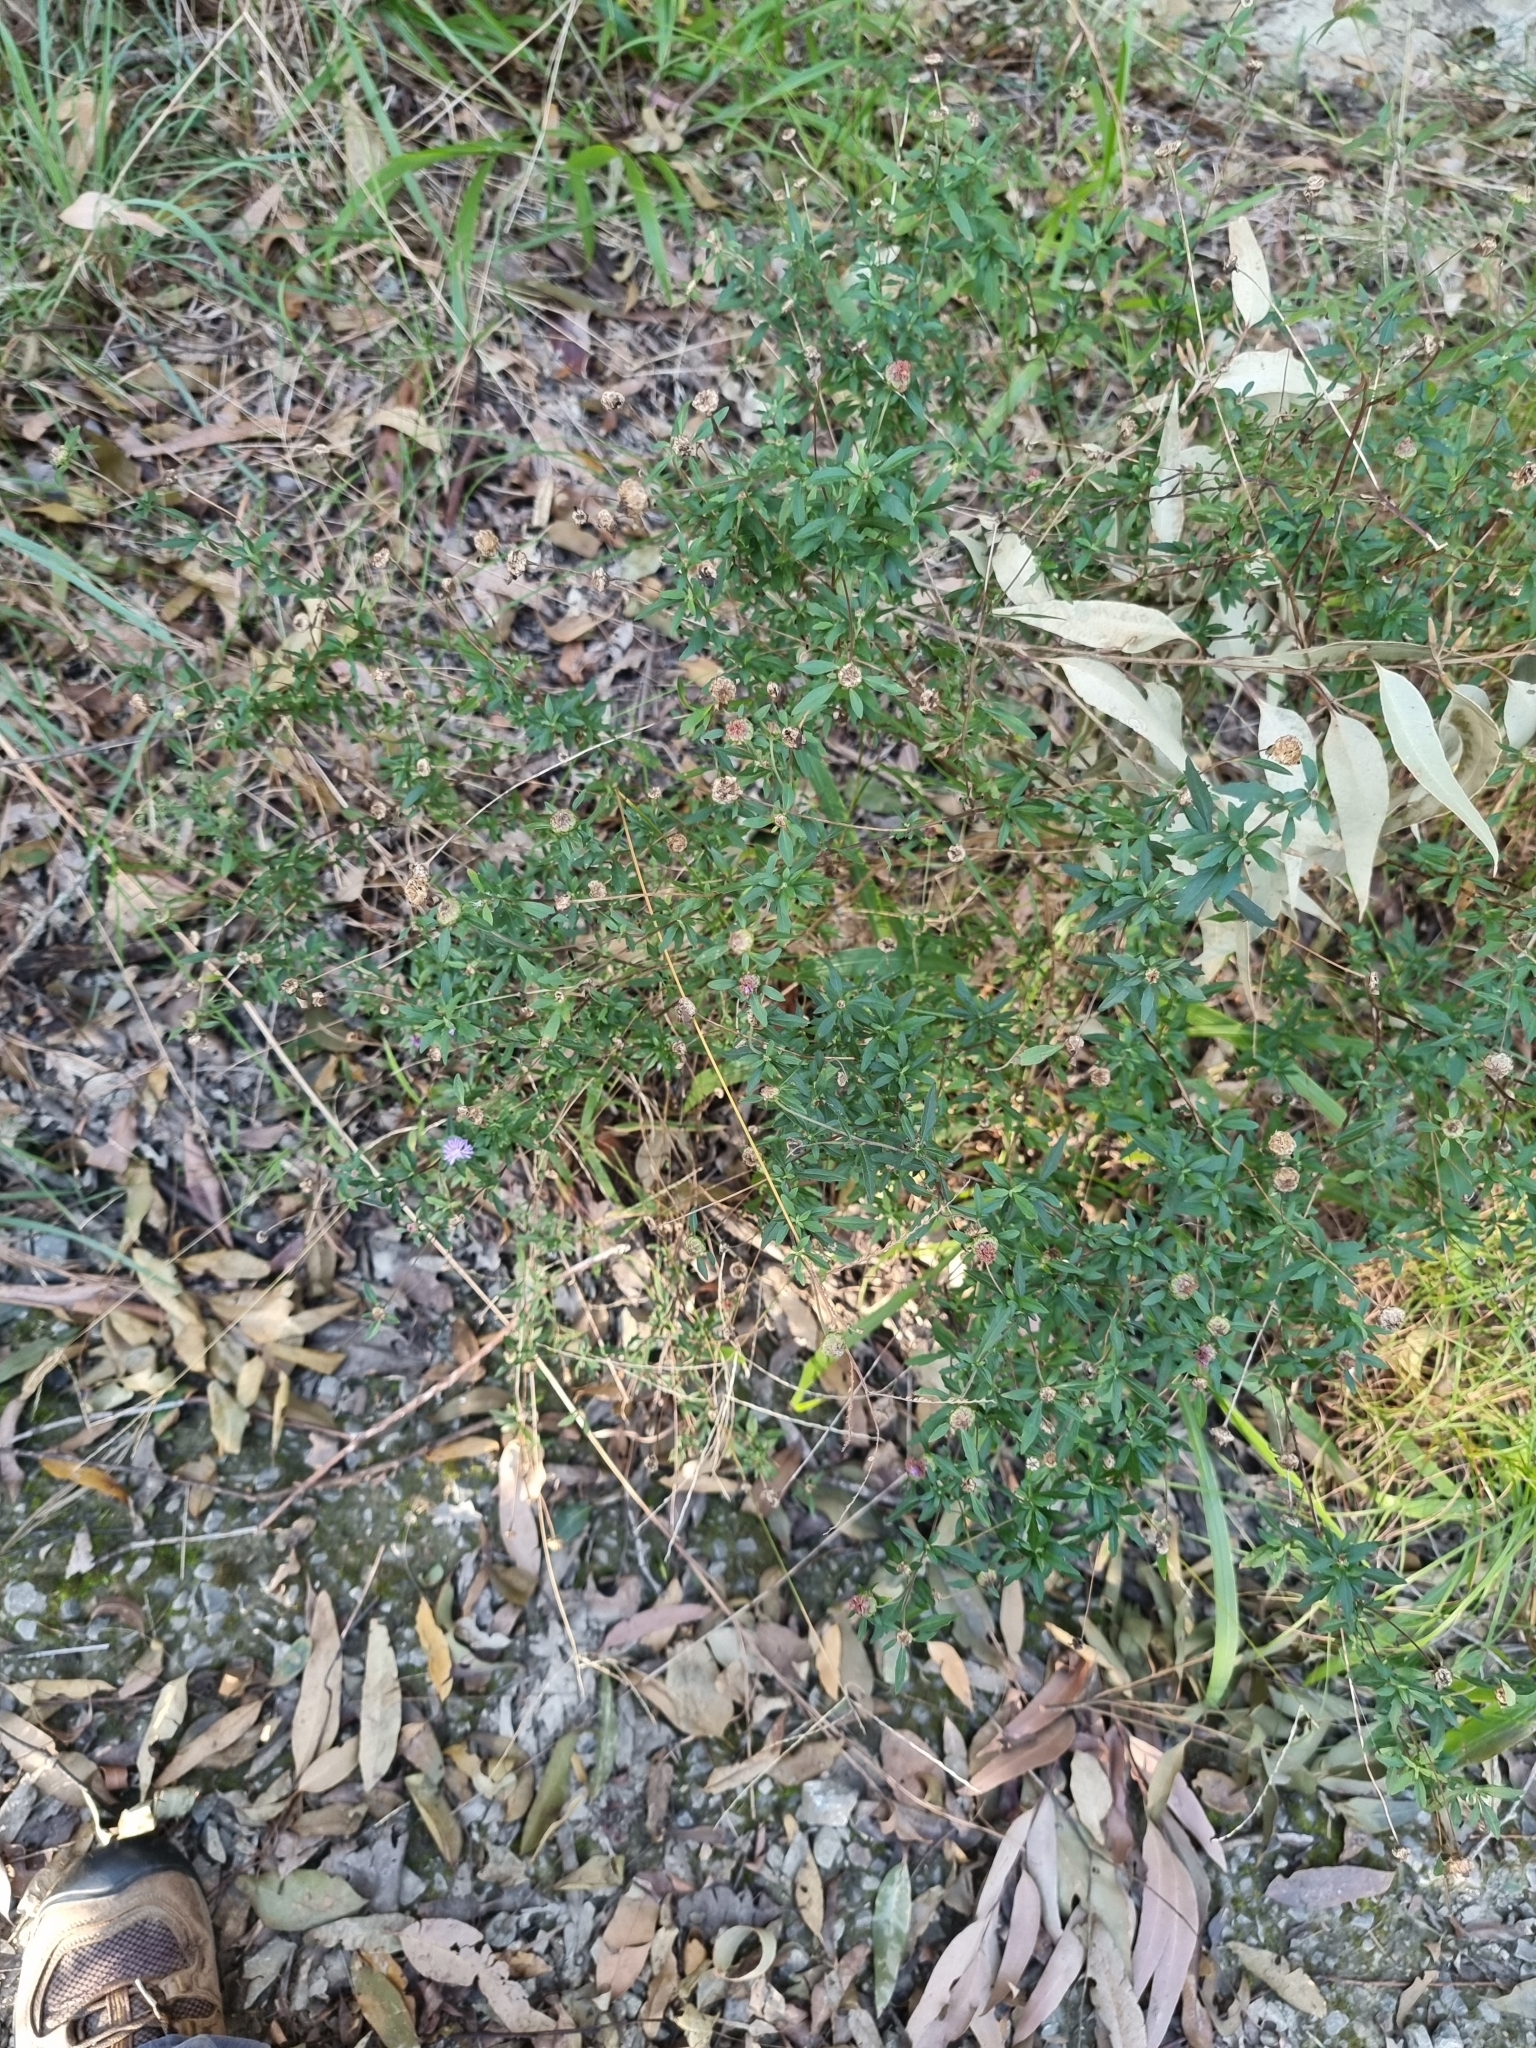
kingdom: Plantae
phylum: Tracheophyta
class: Magnoliopsida
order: Asterales
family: Asteraceae
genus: Centratherum
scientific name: Centratherum punctatum
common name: Larkdaisy
